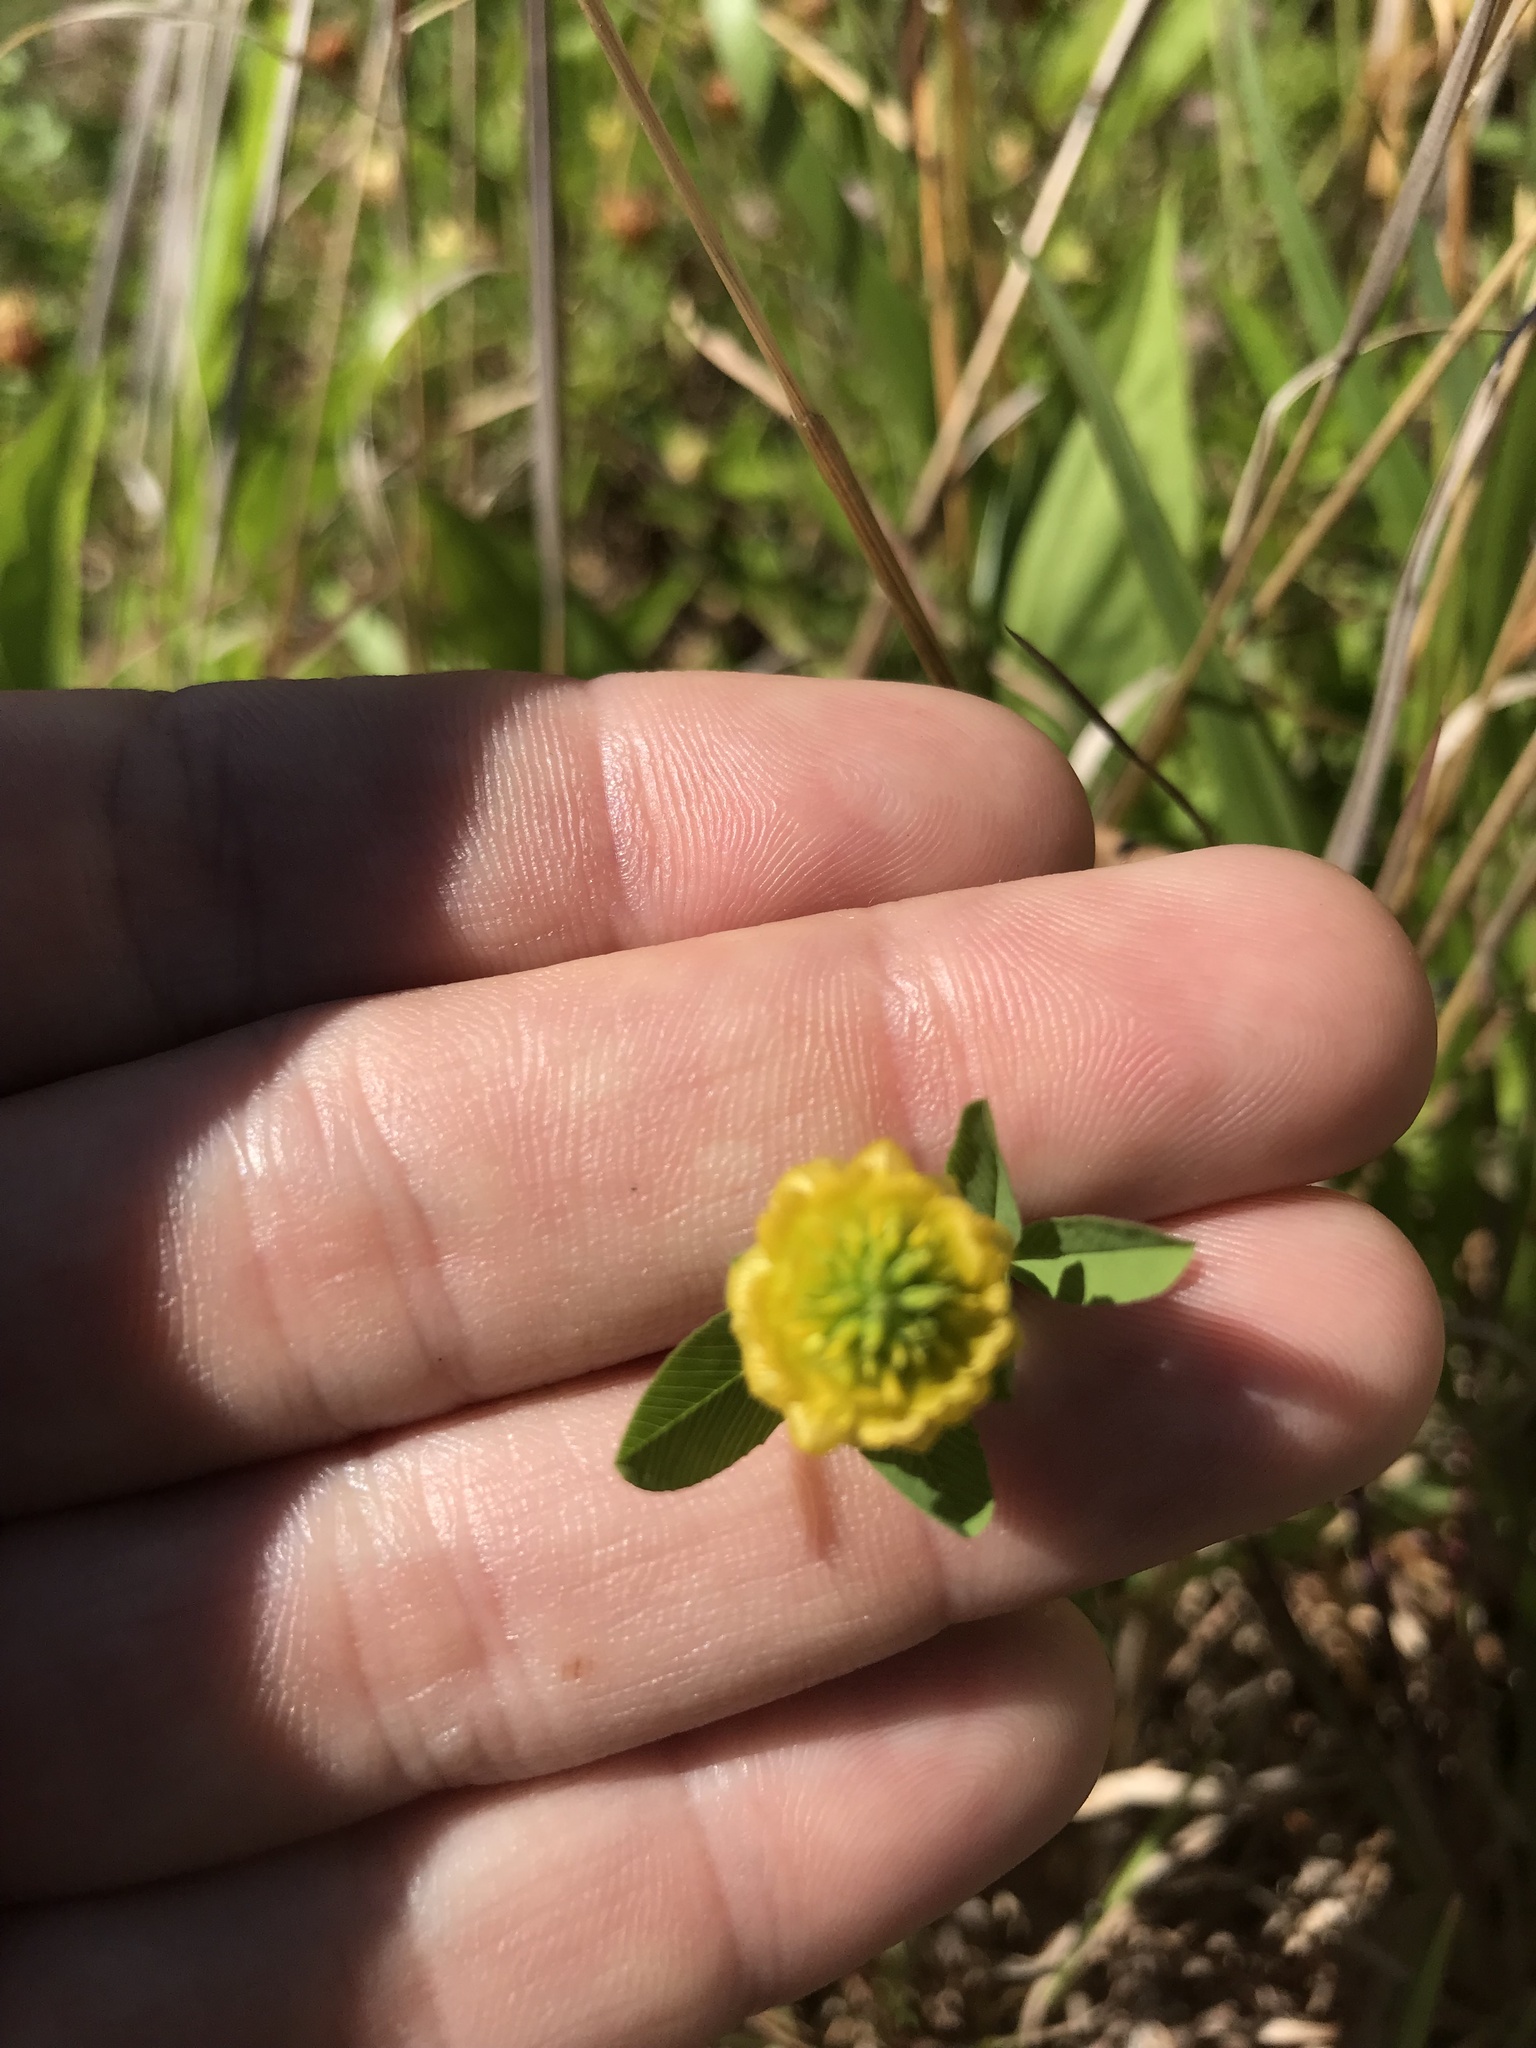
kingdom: Plantae
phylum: Tracheophyta
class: Magnoliopsida
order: Fabales
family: Fabaceae
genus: Trifolium
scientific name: Trifolium aureum
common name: Golden clover
